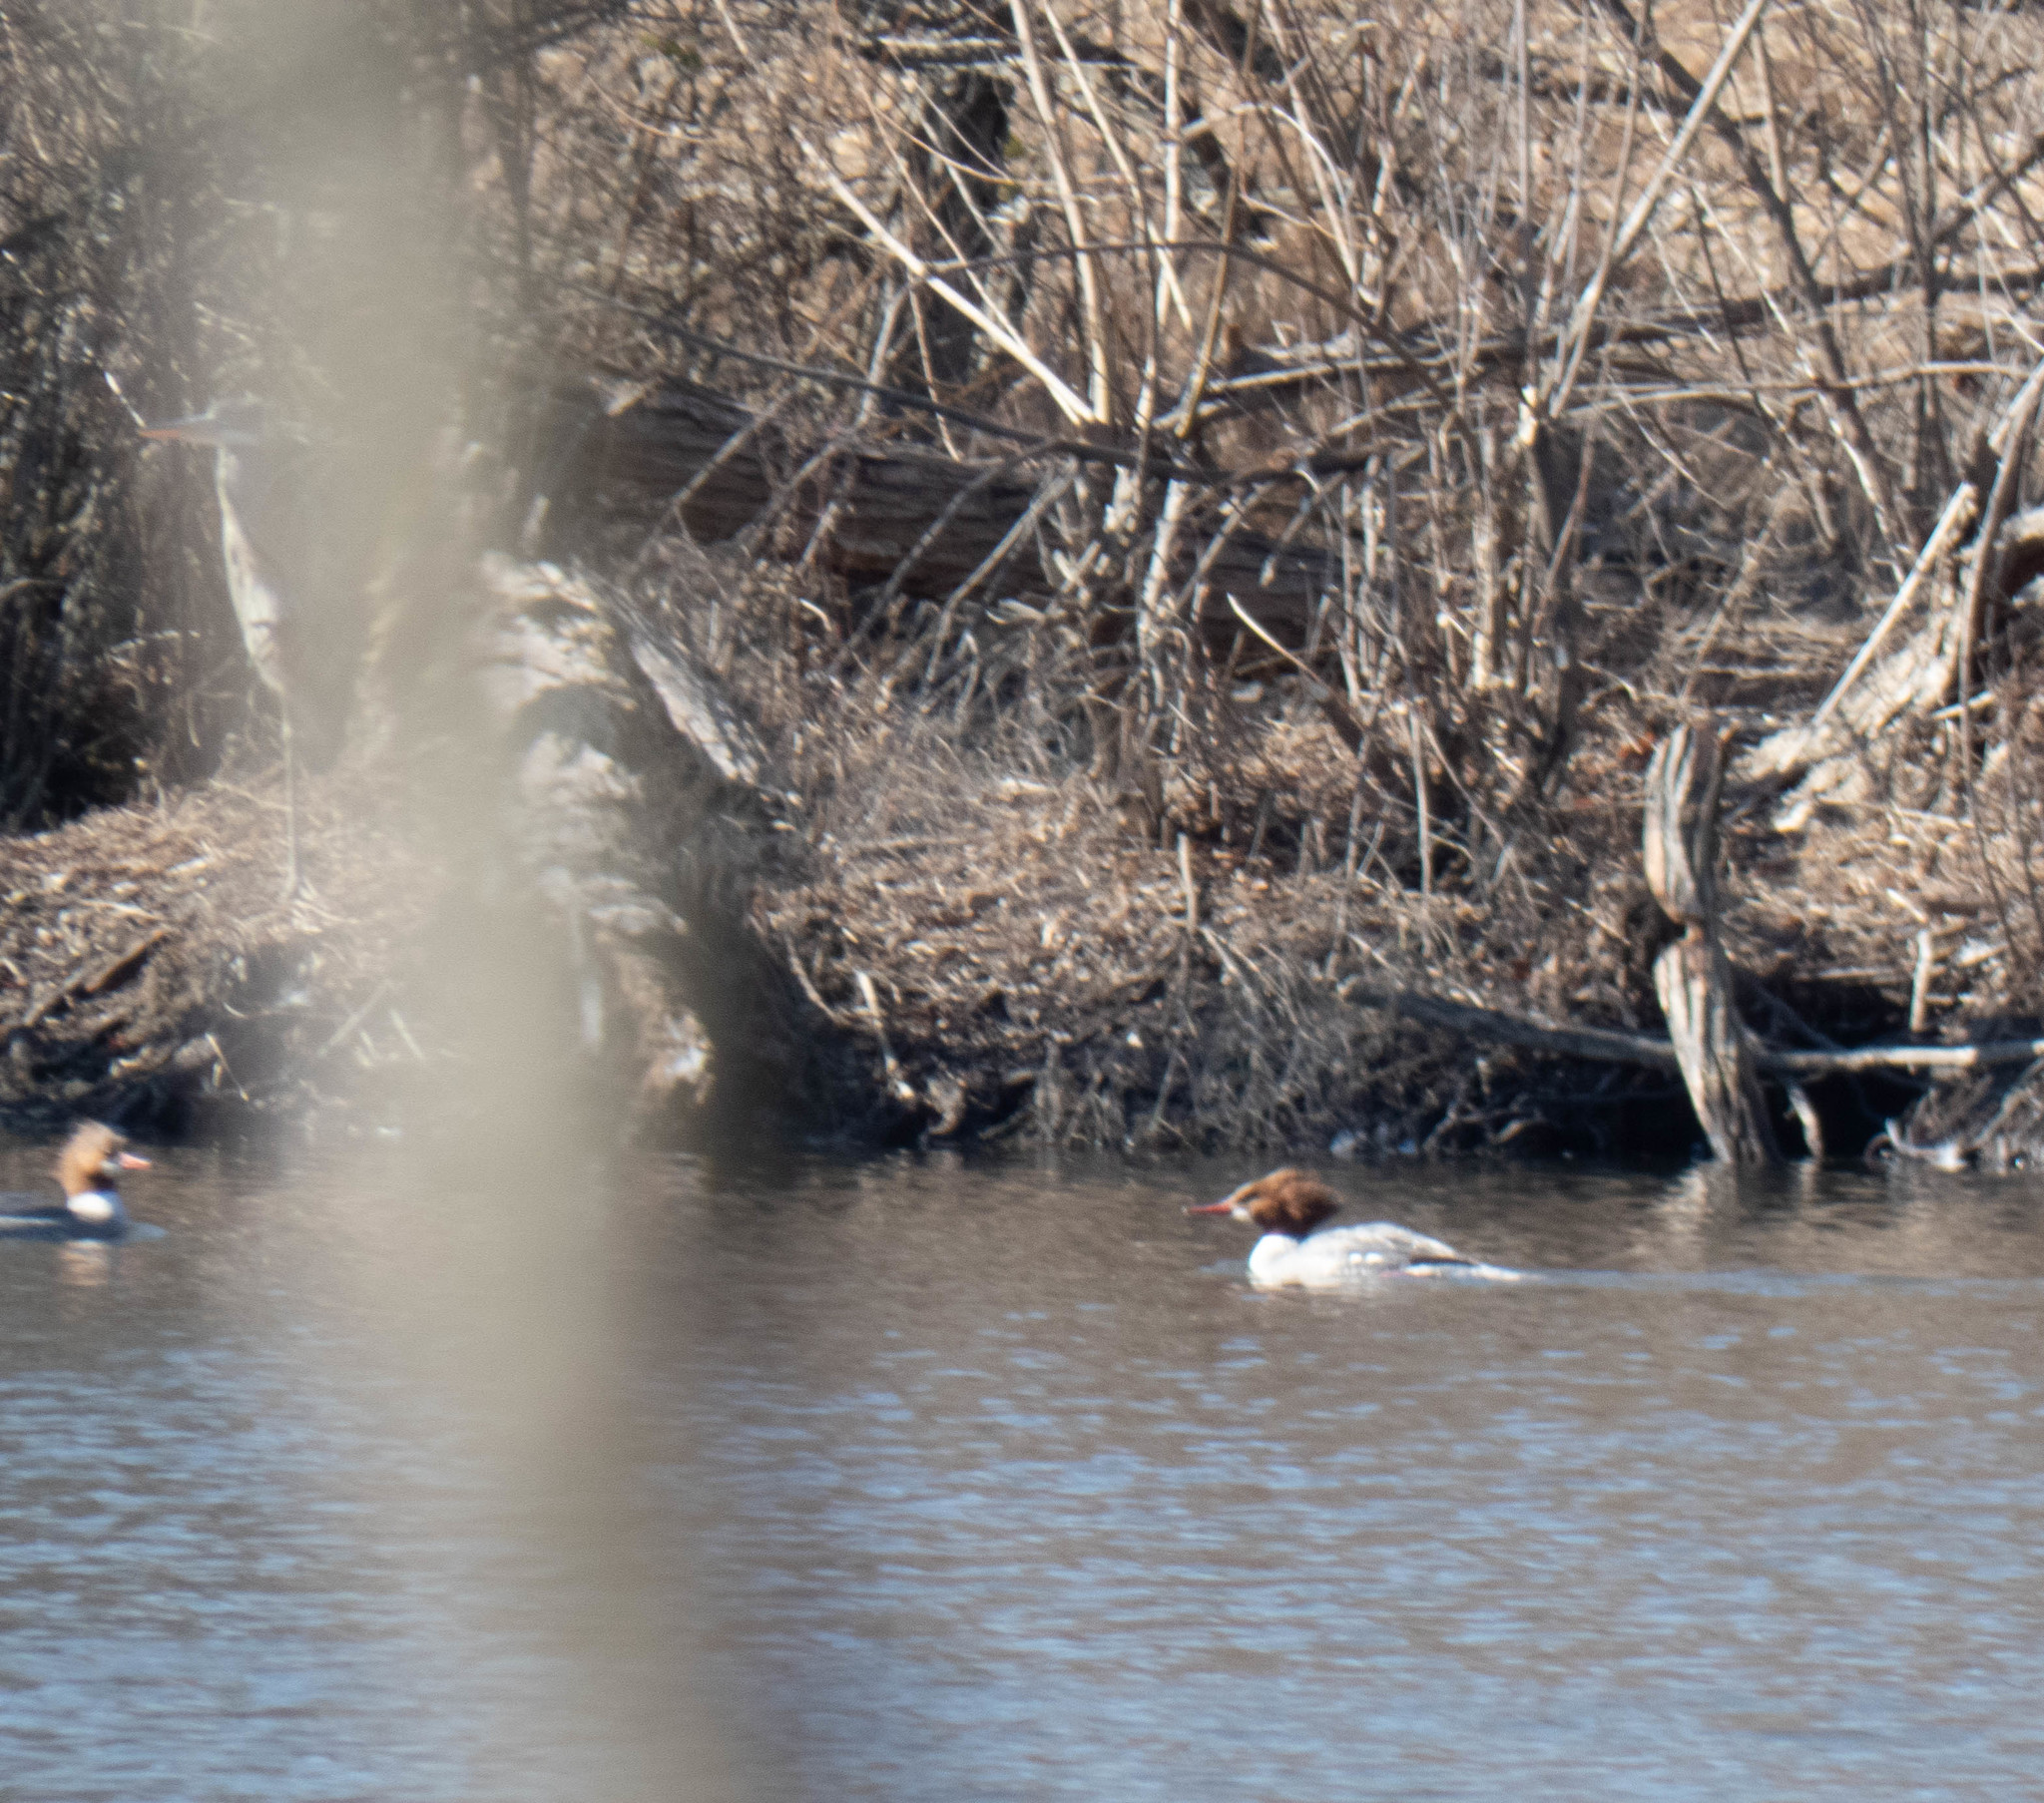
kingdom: Animalia
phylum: Chordata
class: Aves
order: Anseriformes
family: Anatidae
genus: Mergus
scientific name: Mergus merganser
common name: Common merganser
